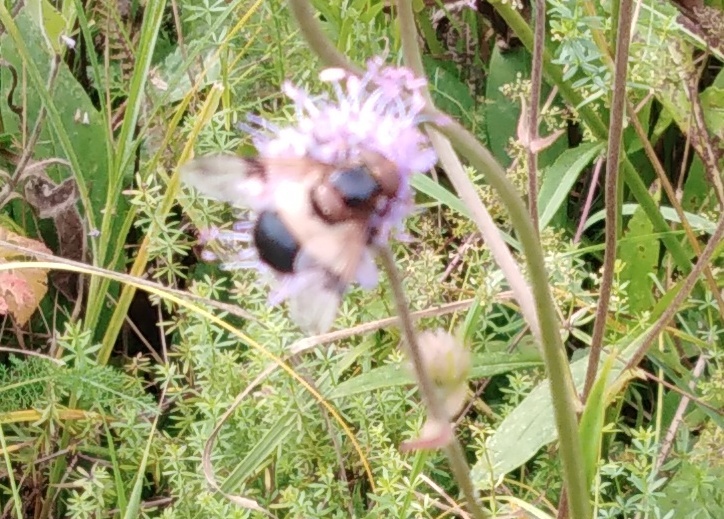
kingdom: Animalia
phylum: Arthropoda
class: Insecta
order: Diptera
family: Syrphidae
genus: Volucella
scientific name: Volucella pellucens
